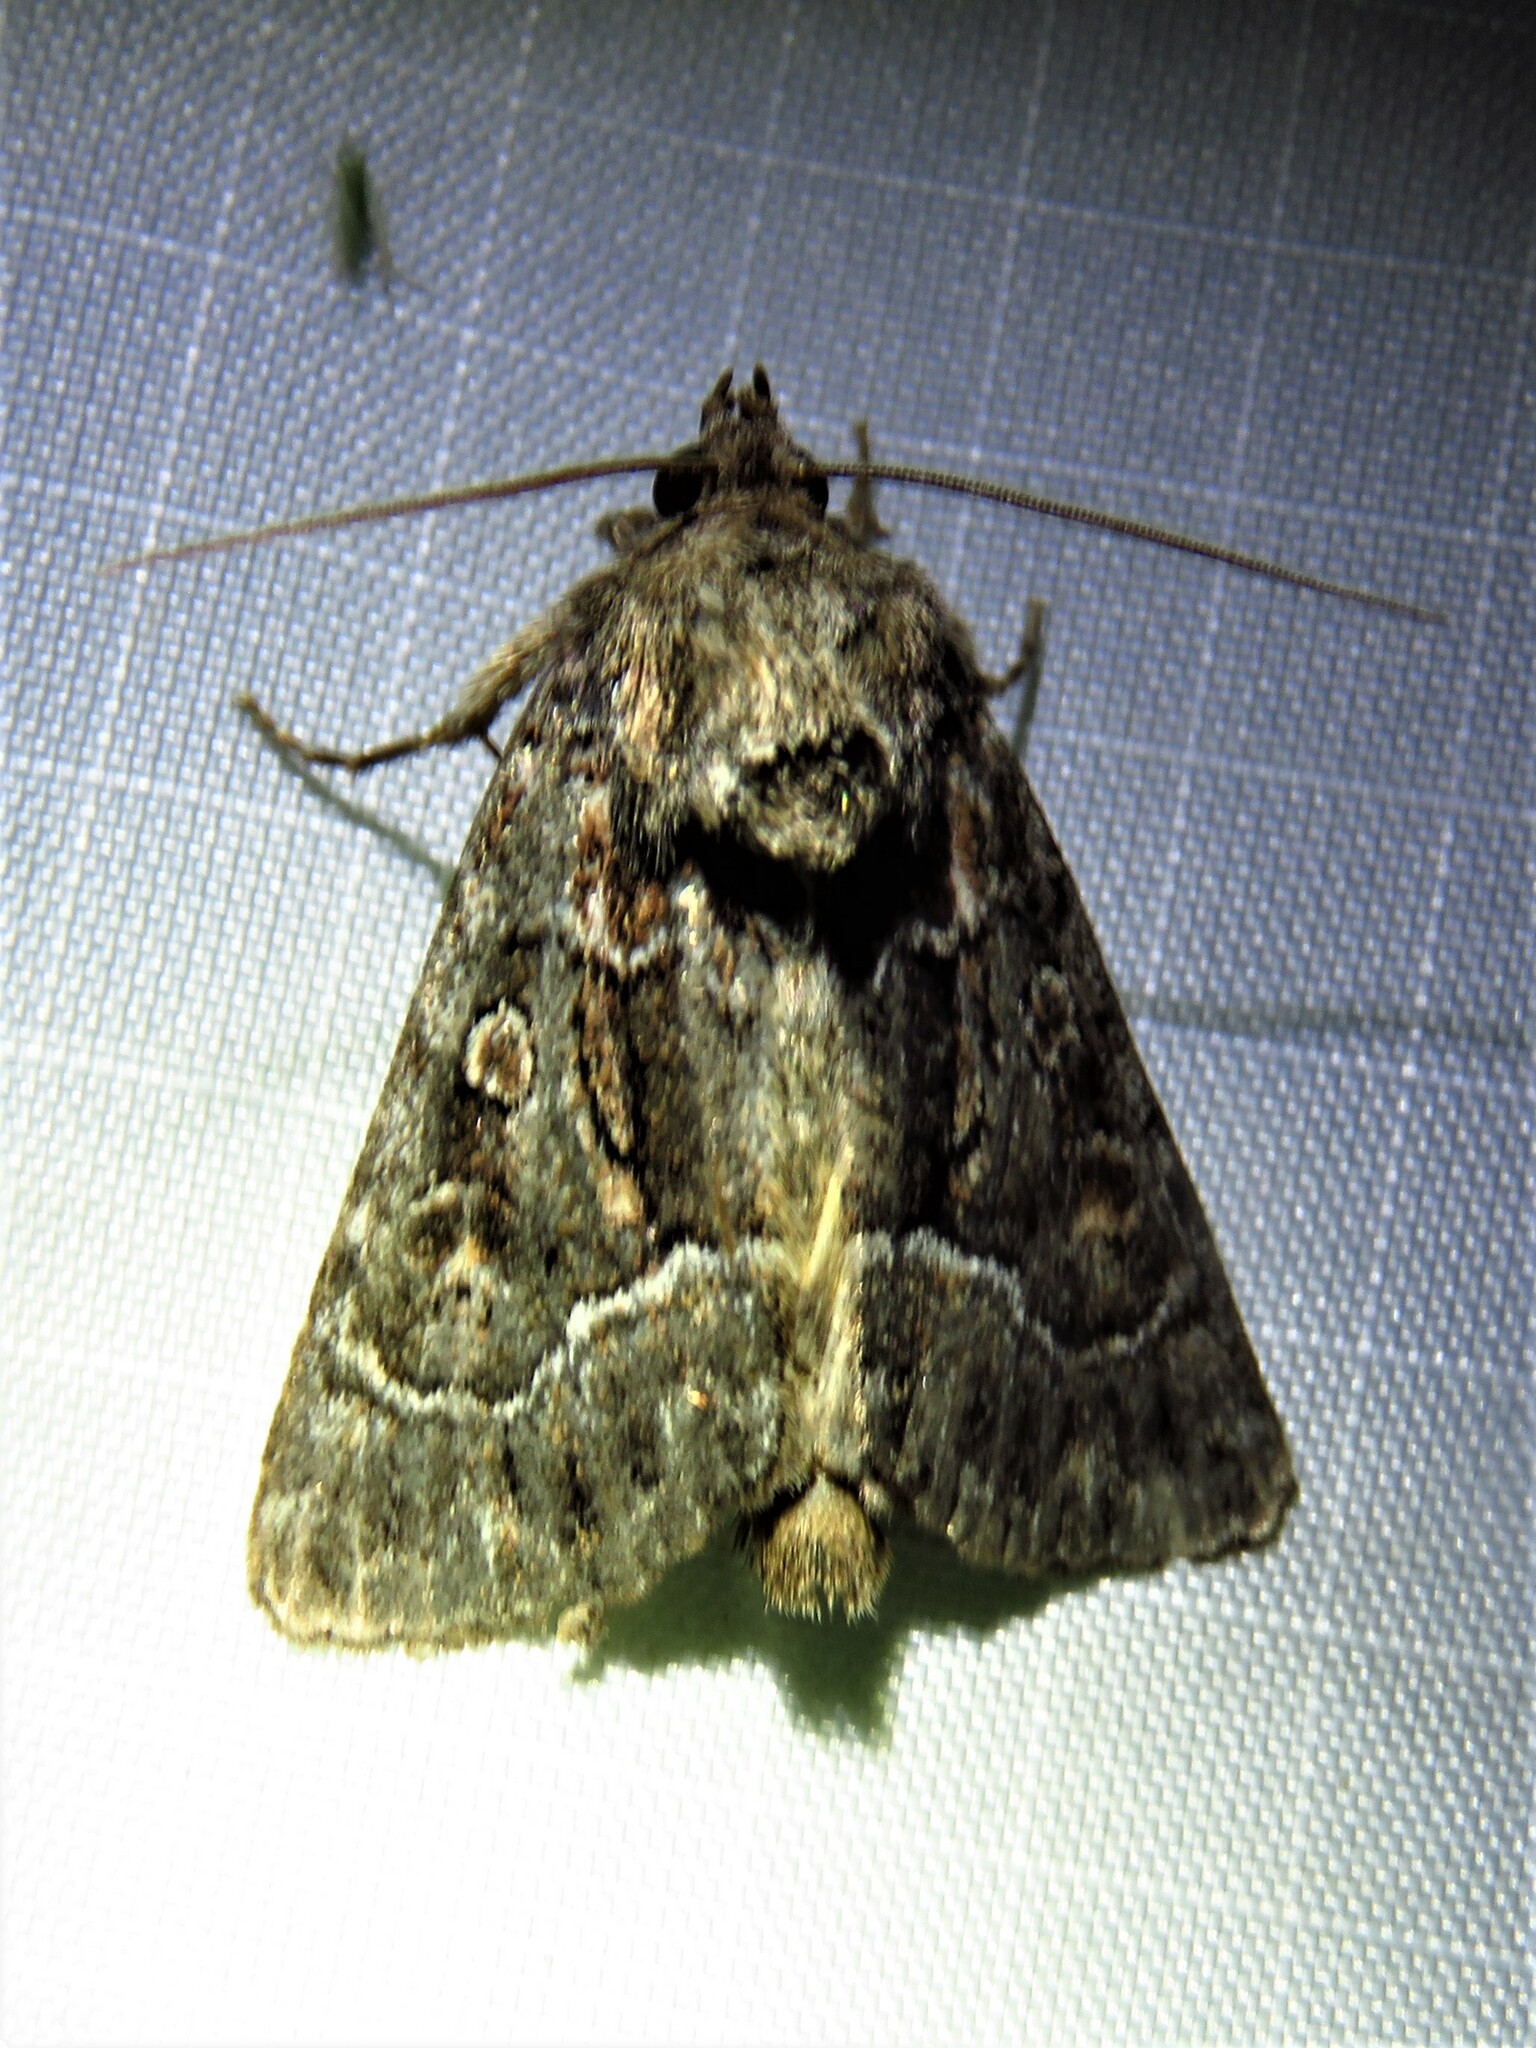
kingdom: Animalia
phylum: Arthropoda
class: Insecta
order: Lepidoptera
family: Noctuidae
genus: Thalpophila
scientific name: Thalpophila matura
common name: Straw underwing
